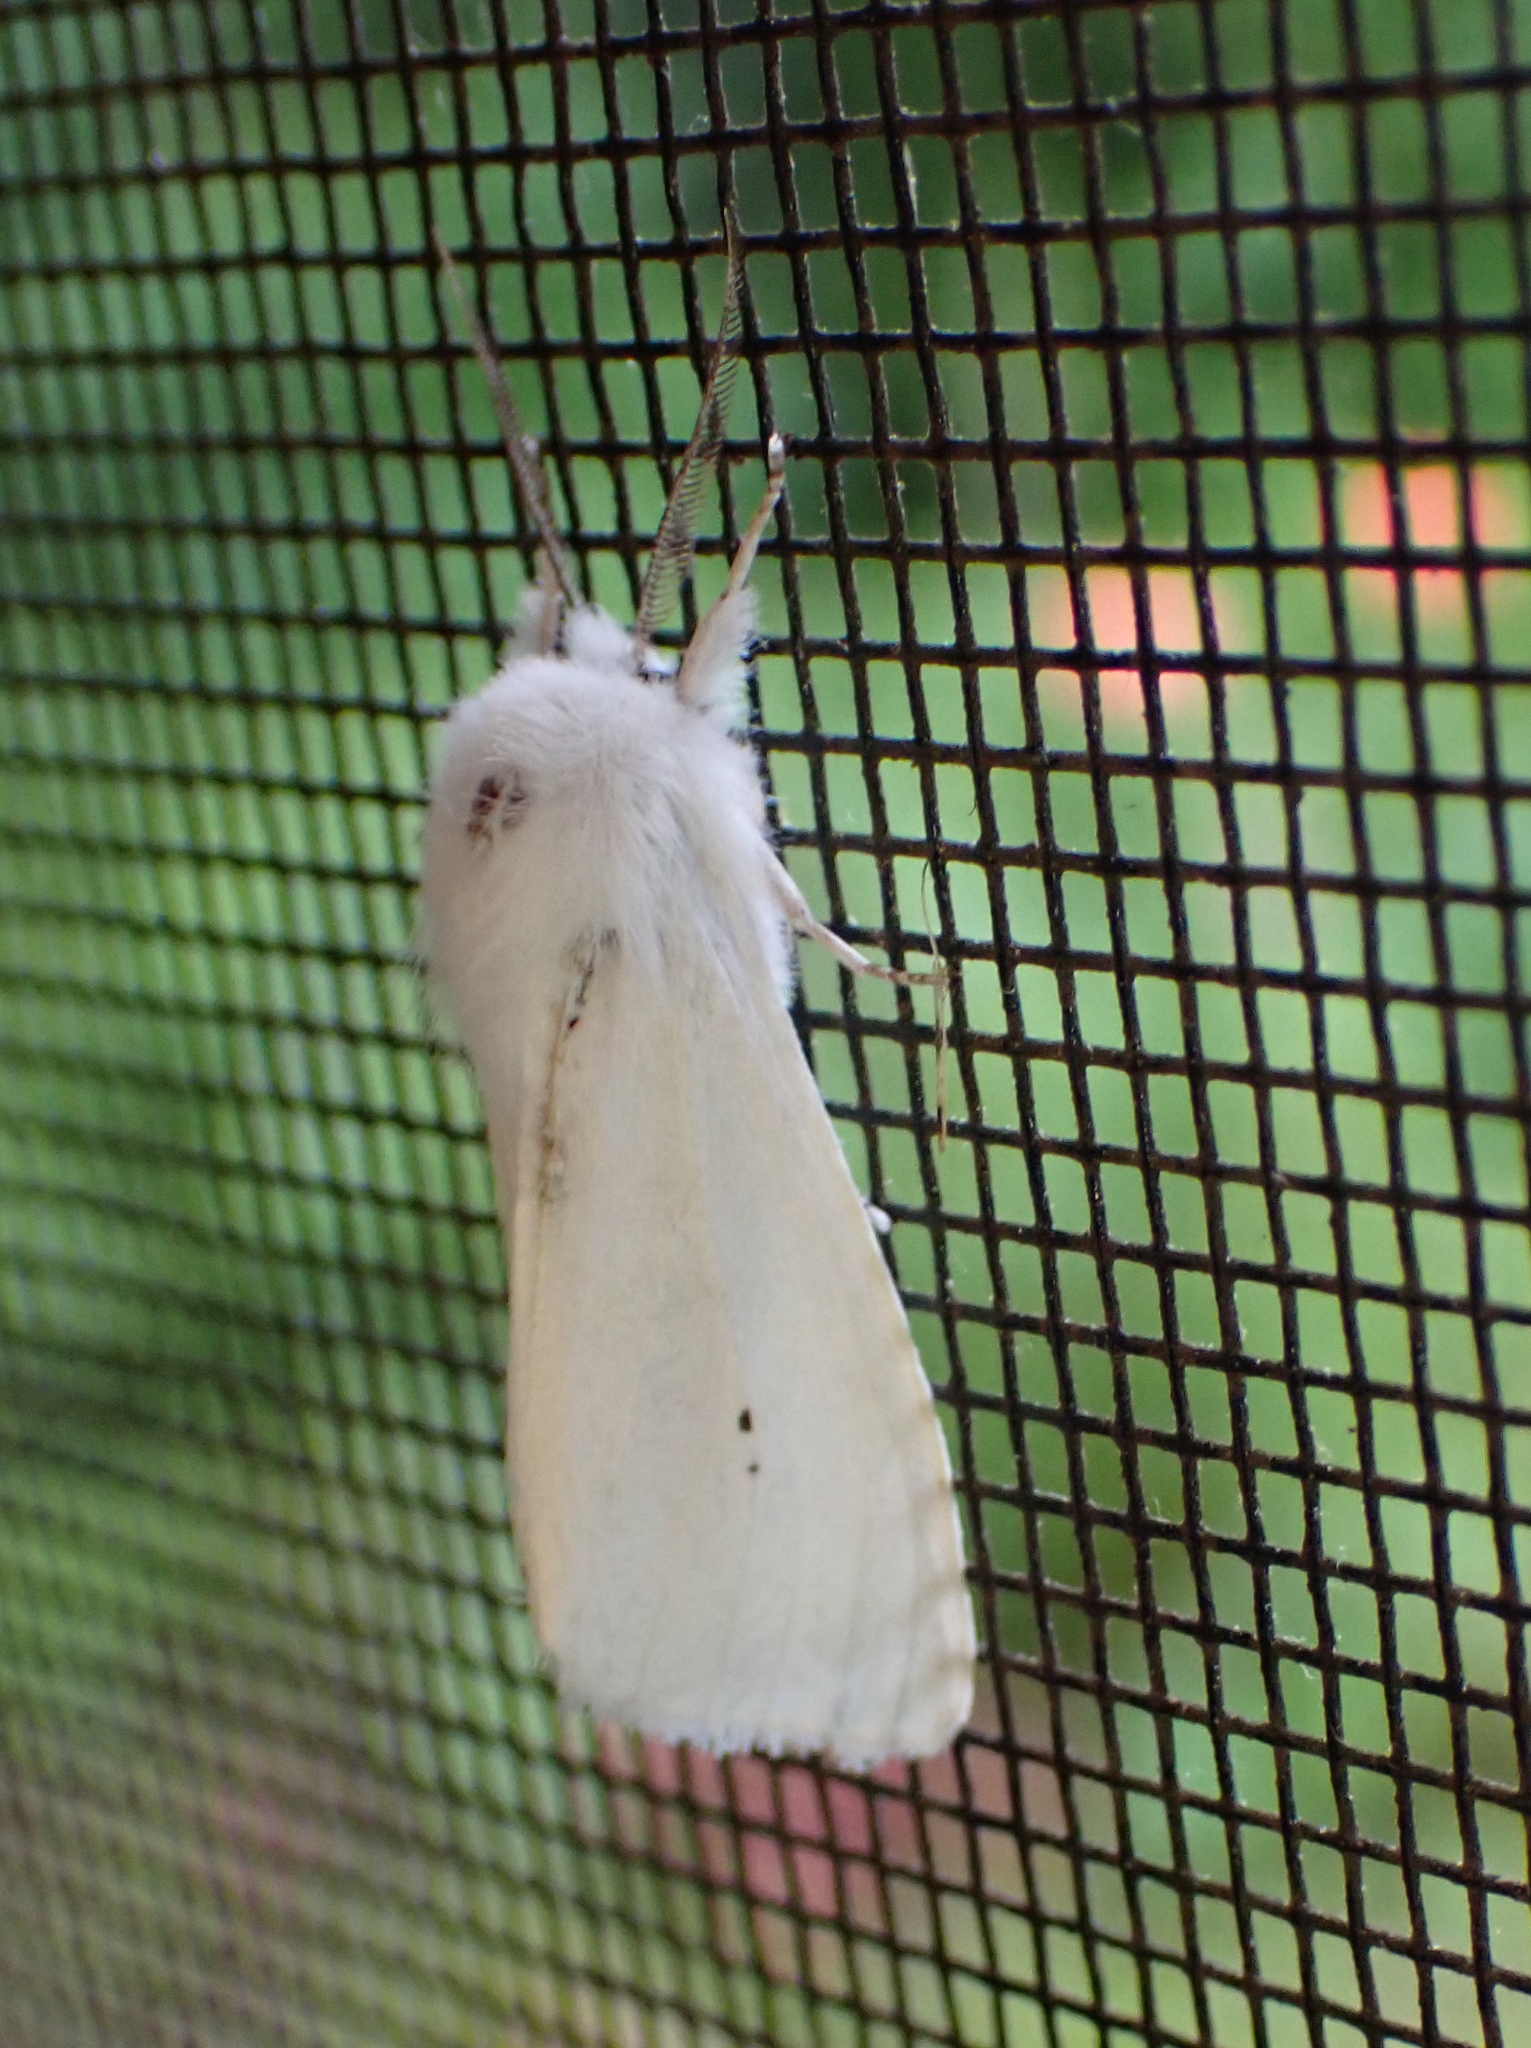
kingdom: Animalia
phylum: Arthropoda
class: Insecta
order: Lepidoptera
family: Erebidae
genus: Spilosoma
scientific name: Spilosoma virginica
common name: Virginia tiger moth
